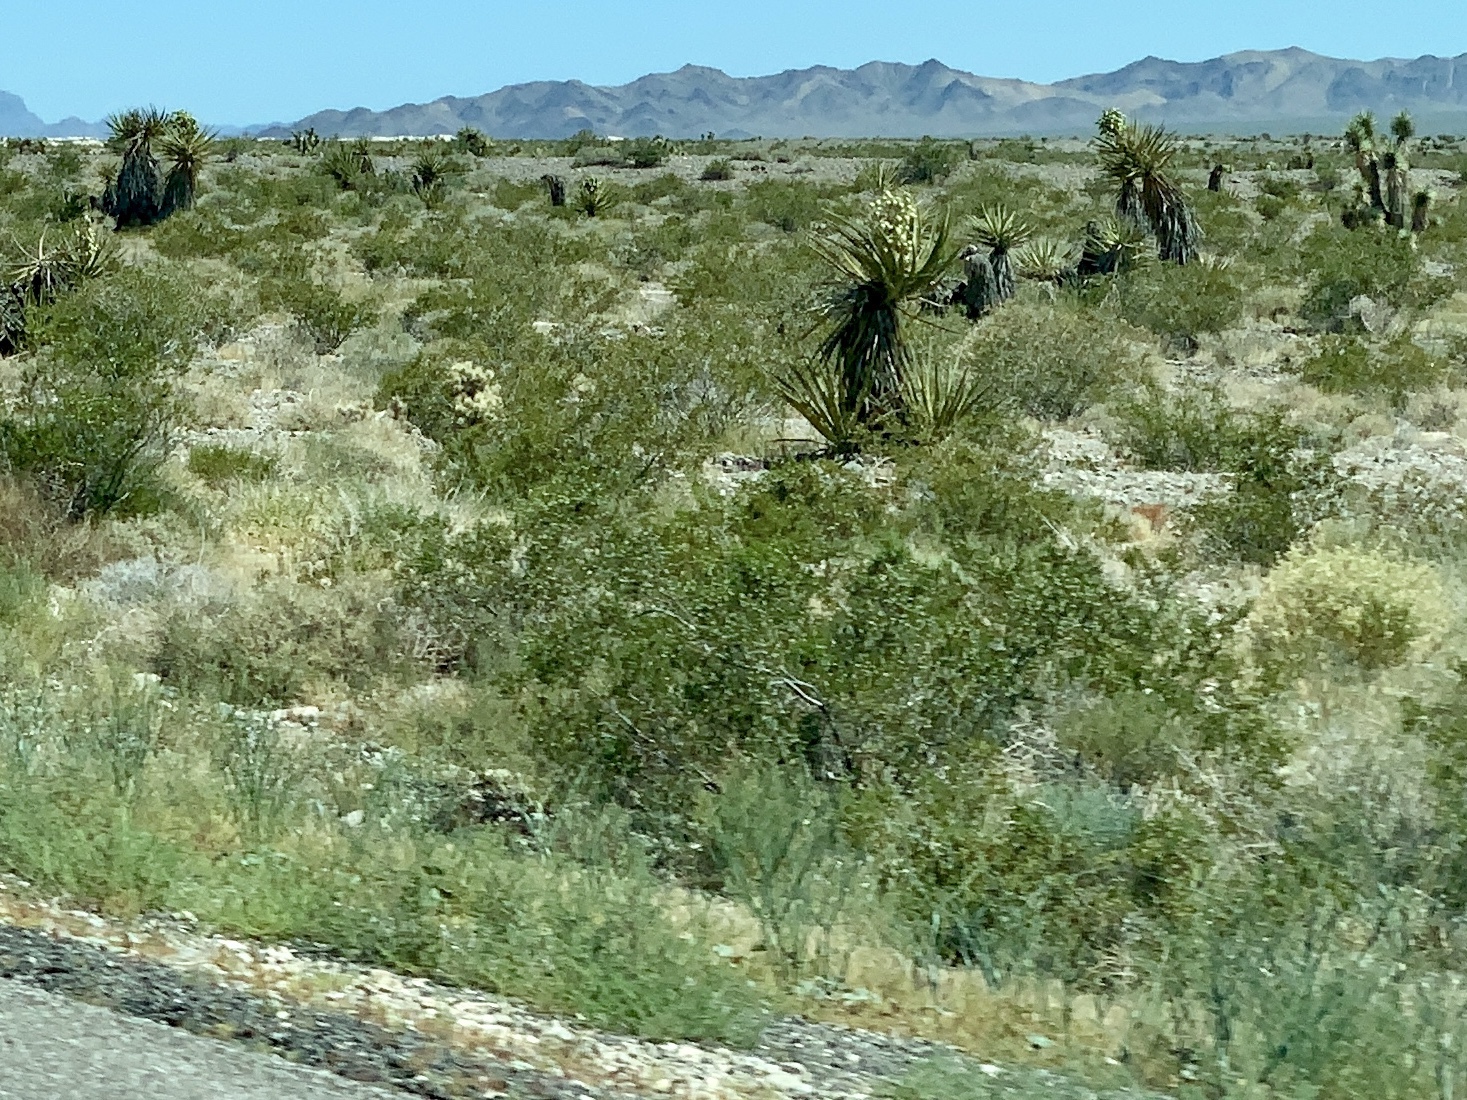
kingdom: Plantae
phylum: Tracheophyta
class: Magnoliopsida
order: Zygophyllales
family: Zygophyllaceae
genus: Larrea
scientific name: Larrea tridentata
